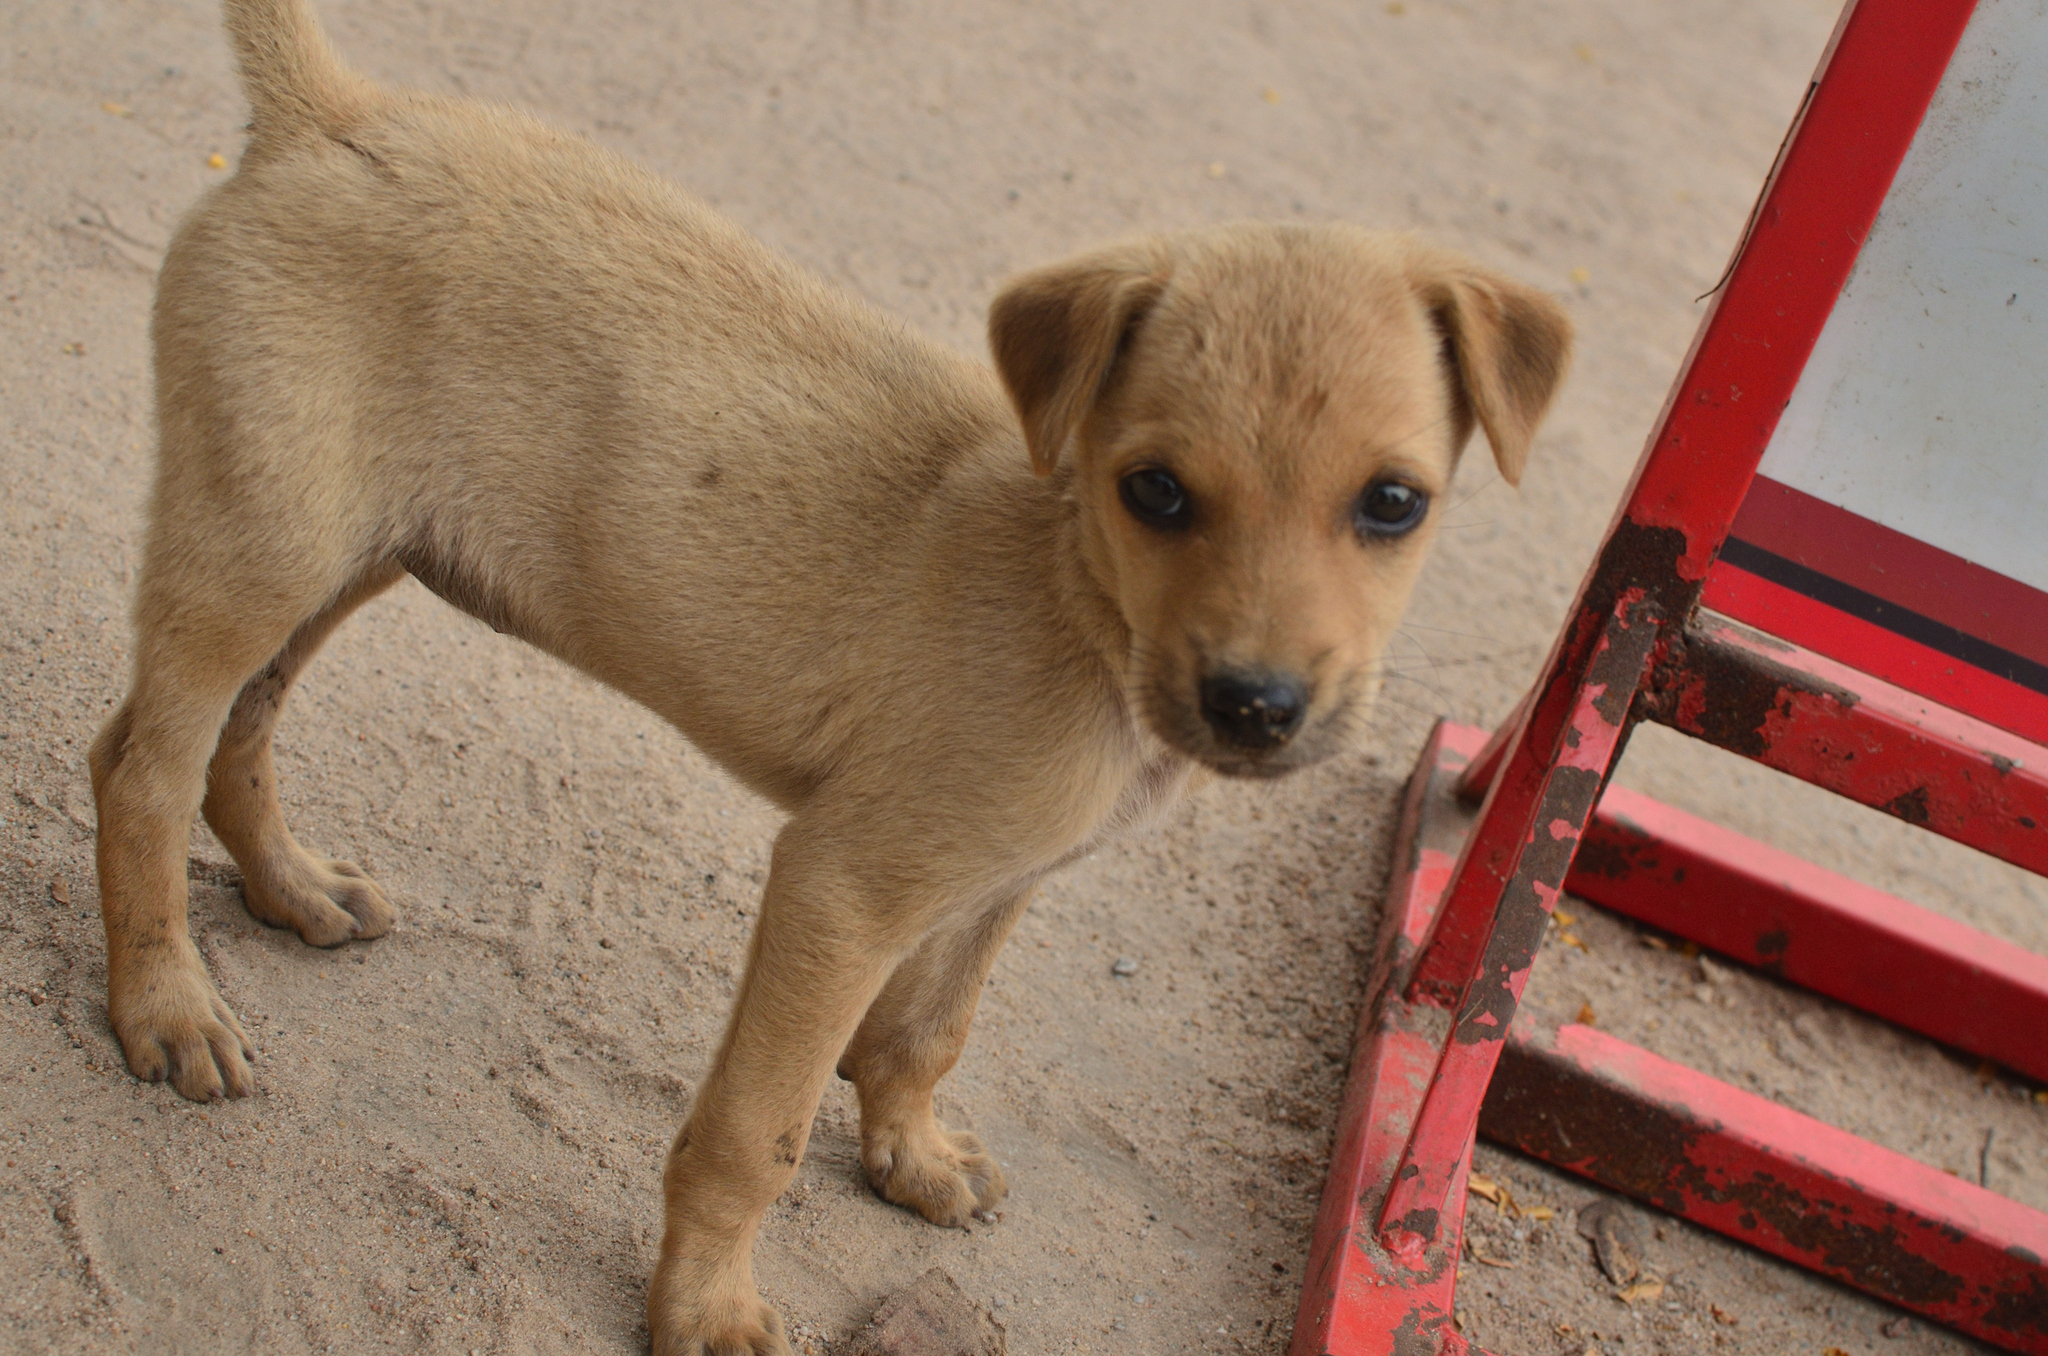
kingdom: Animalia
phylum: Chordata
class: Mammalia
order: Carnivora
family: Canidae
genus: Canis
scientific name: Canis lupus
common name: Gray wolf
